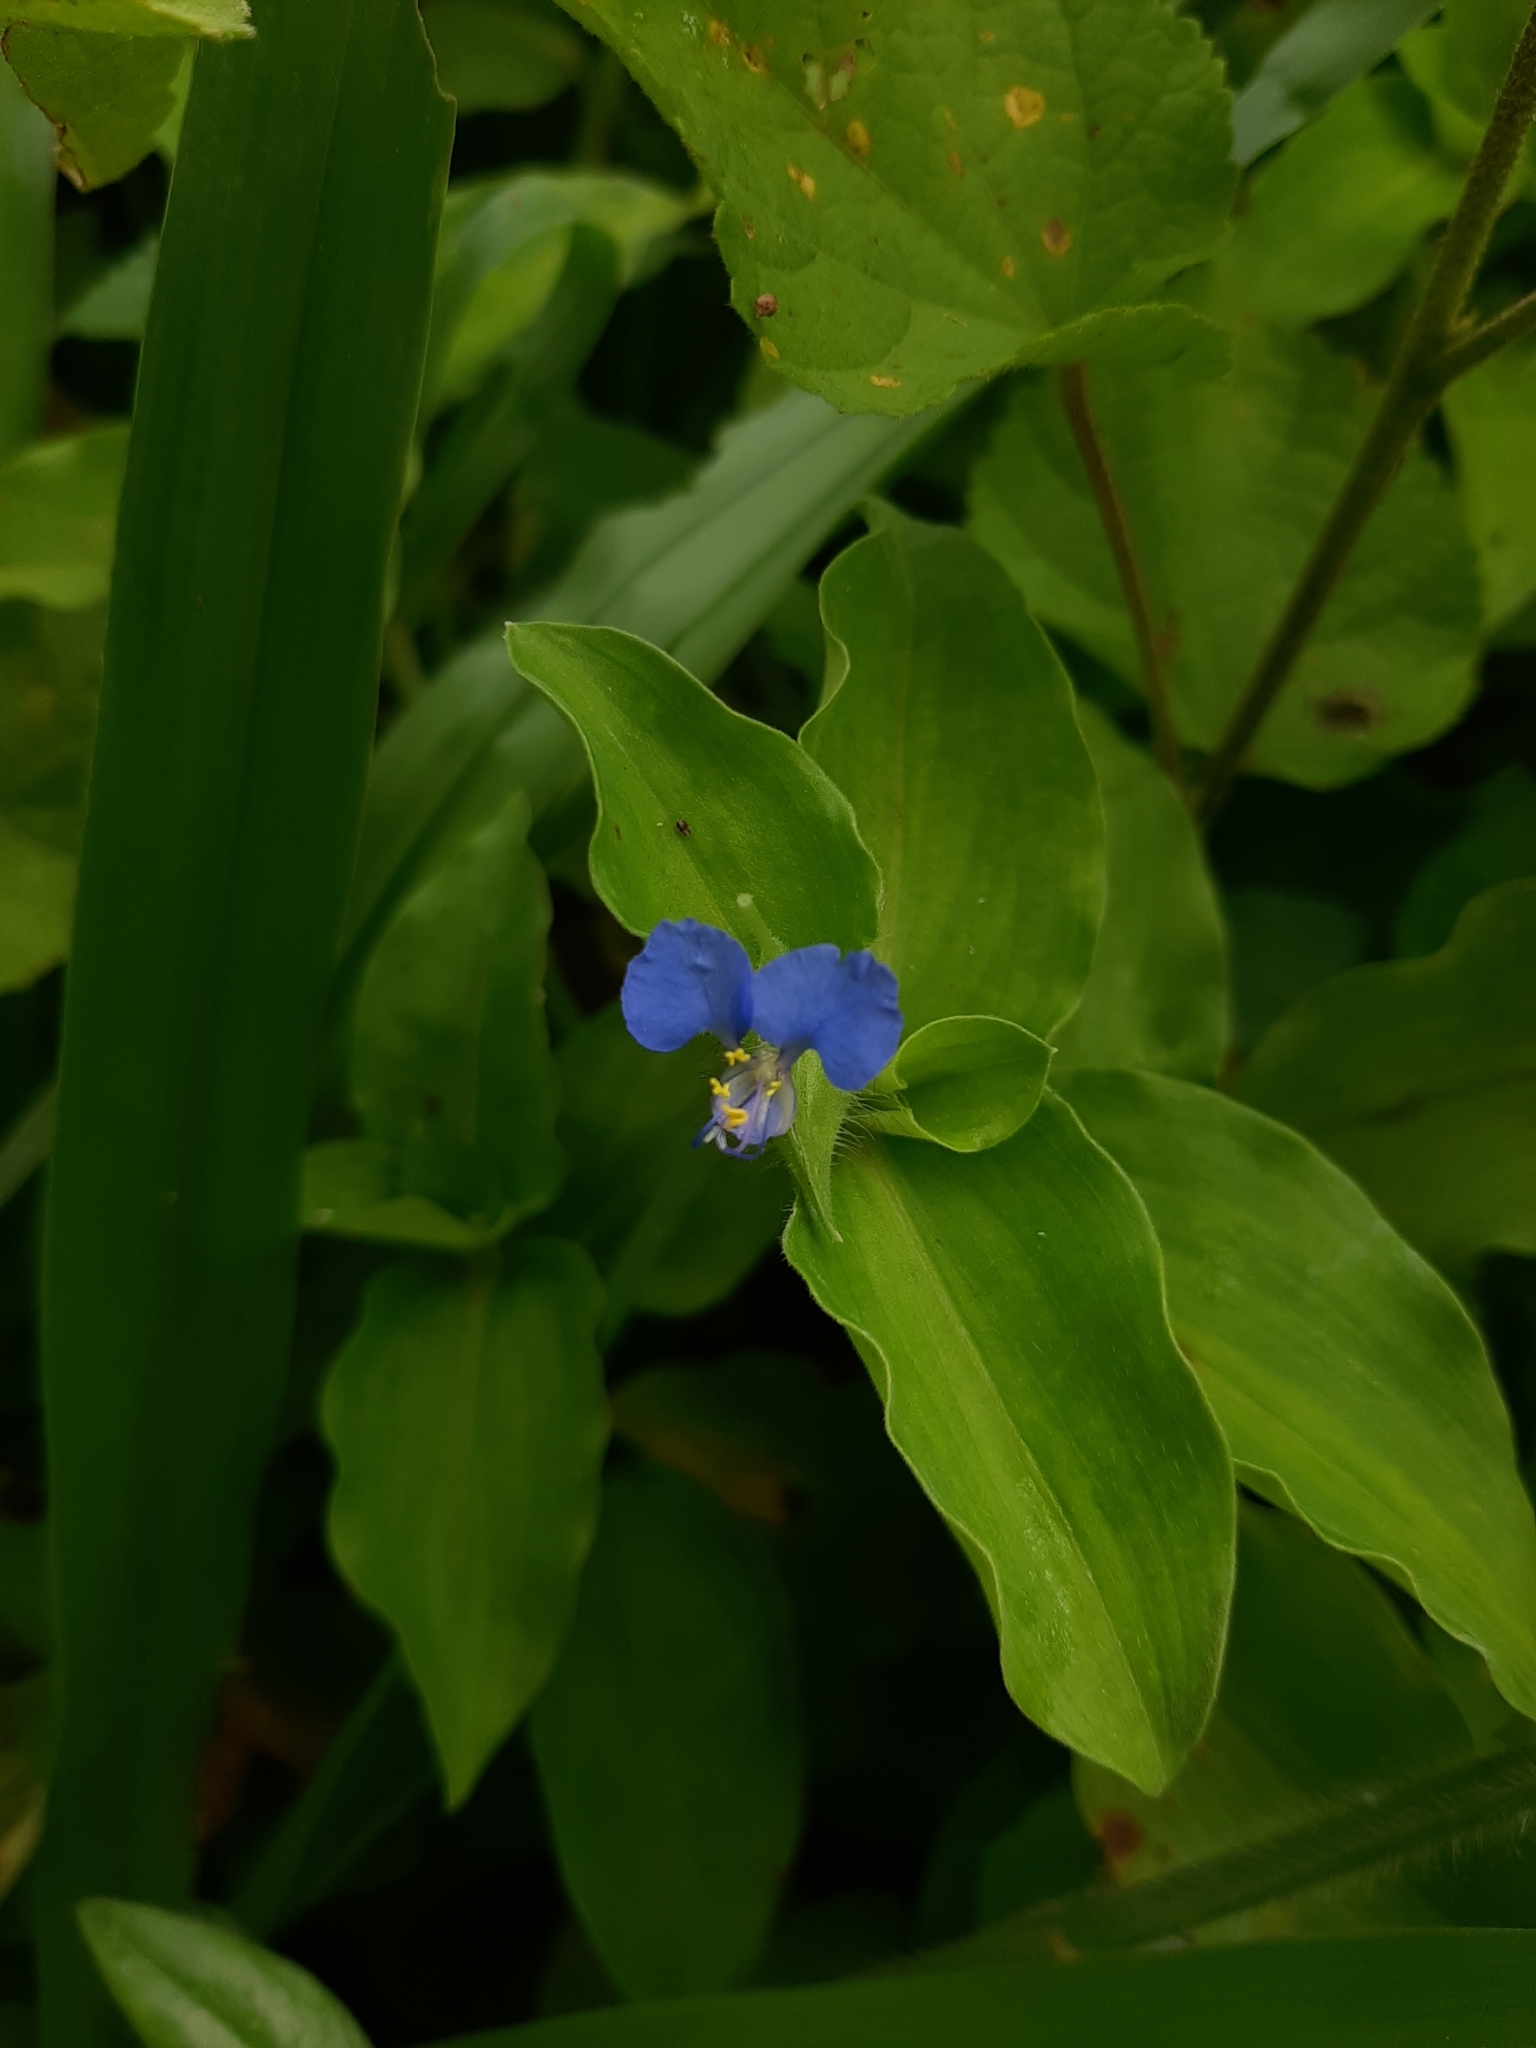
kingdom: Plantae
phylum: Tracheophyta
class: Liliopsida
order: Commelinales
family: Commelinaceae
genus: Commelina
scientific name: Commelina benghalensis
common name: Jio
